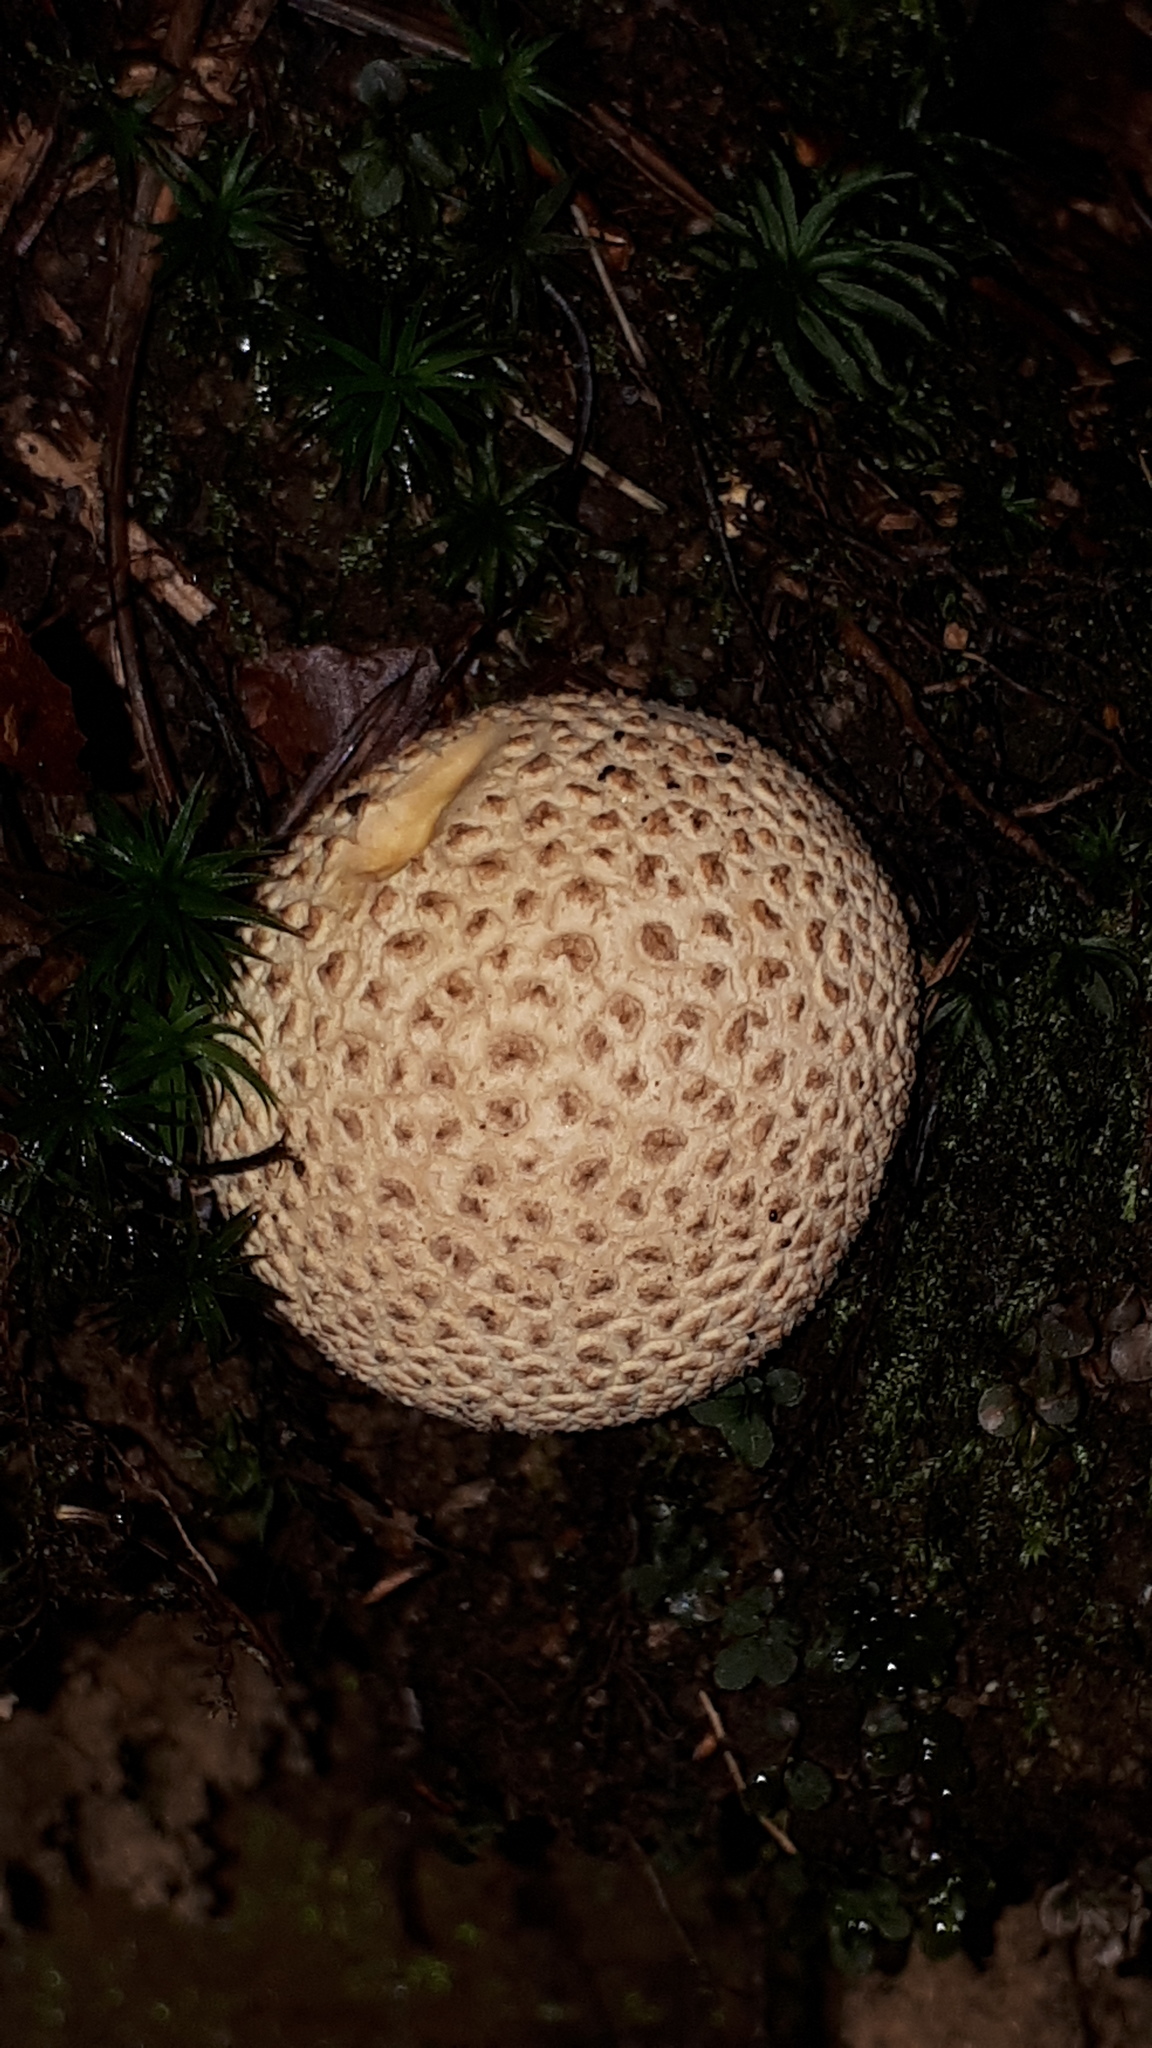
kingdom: Fungi
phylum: Basidiomycota
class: Agaricomycetes
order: Boletales
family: Sclerodermataceae
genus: Scleroderma
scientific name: Scleroderma citrinum
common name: Common earthball
